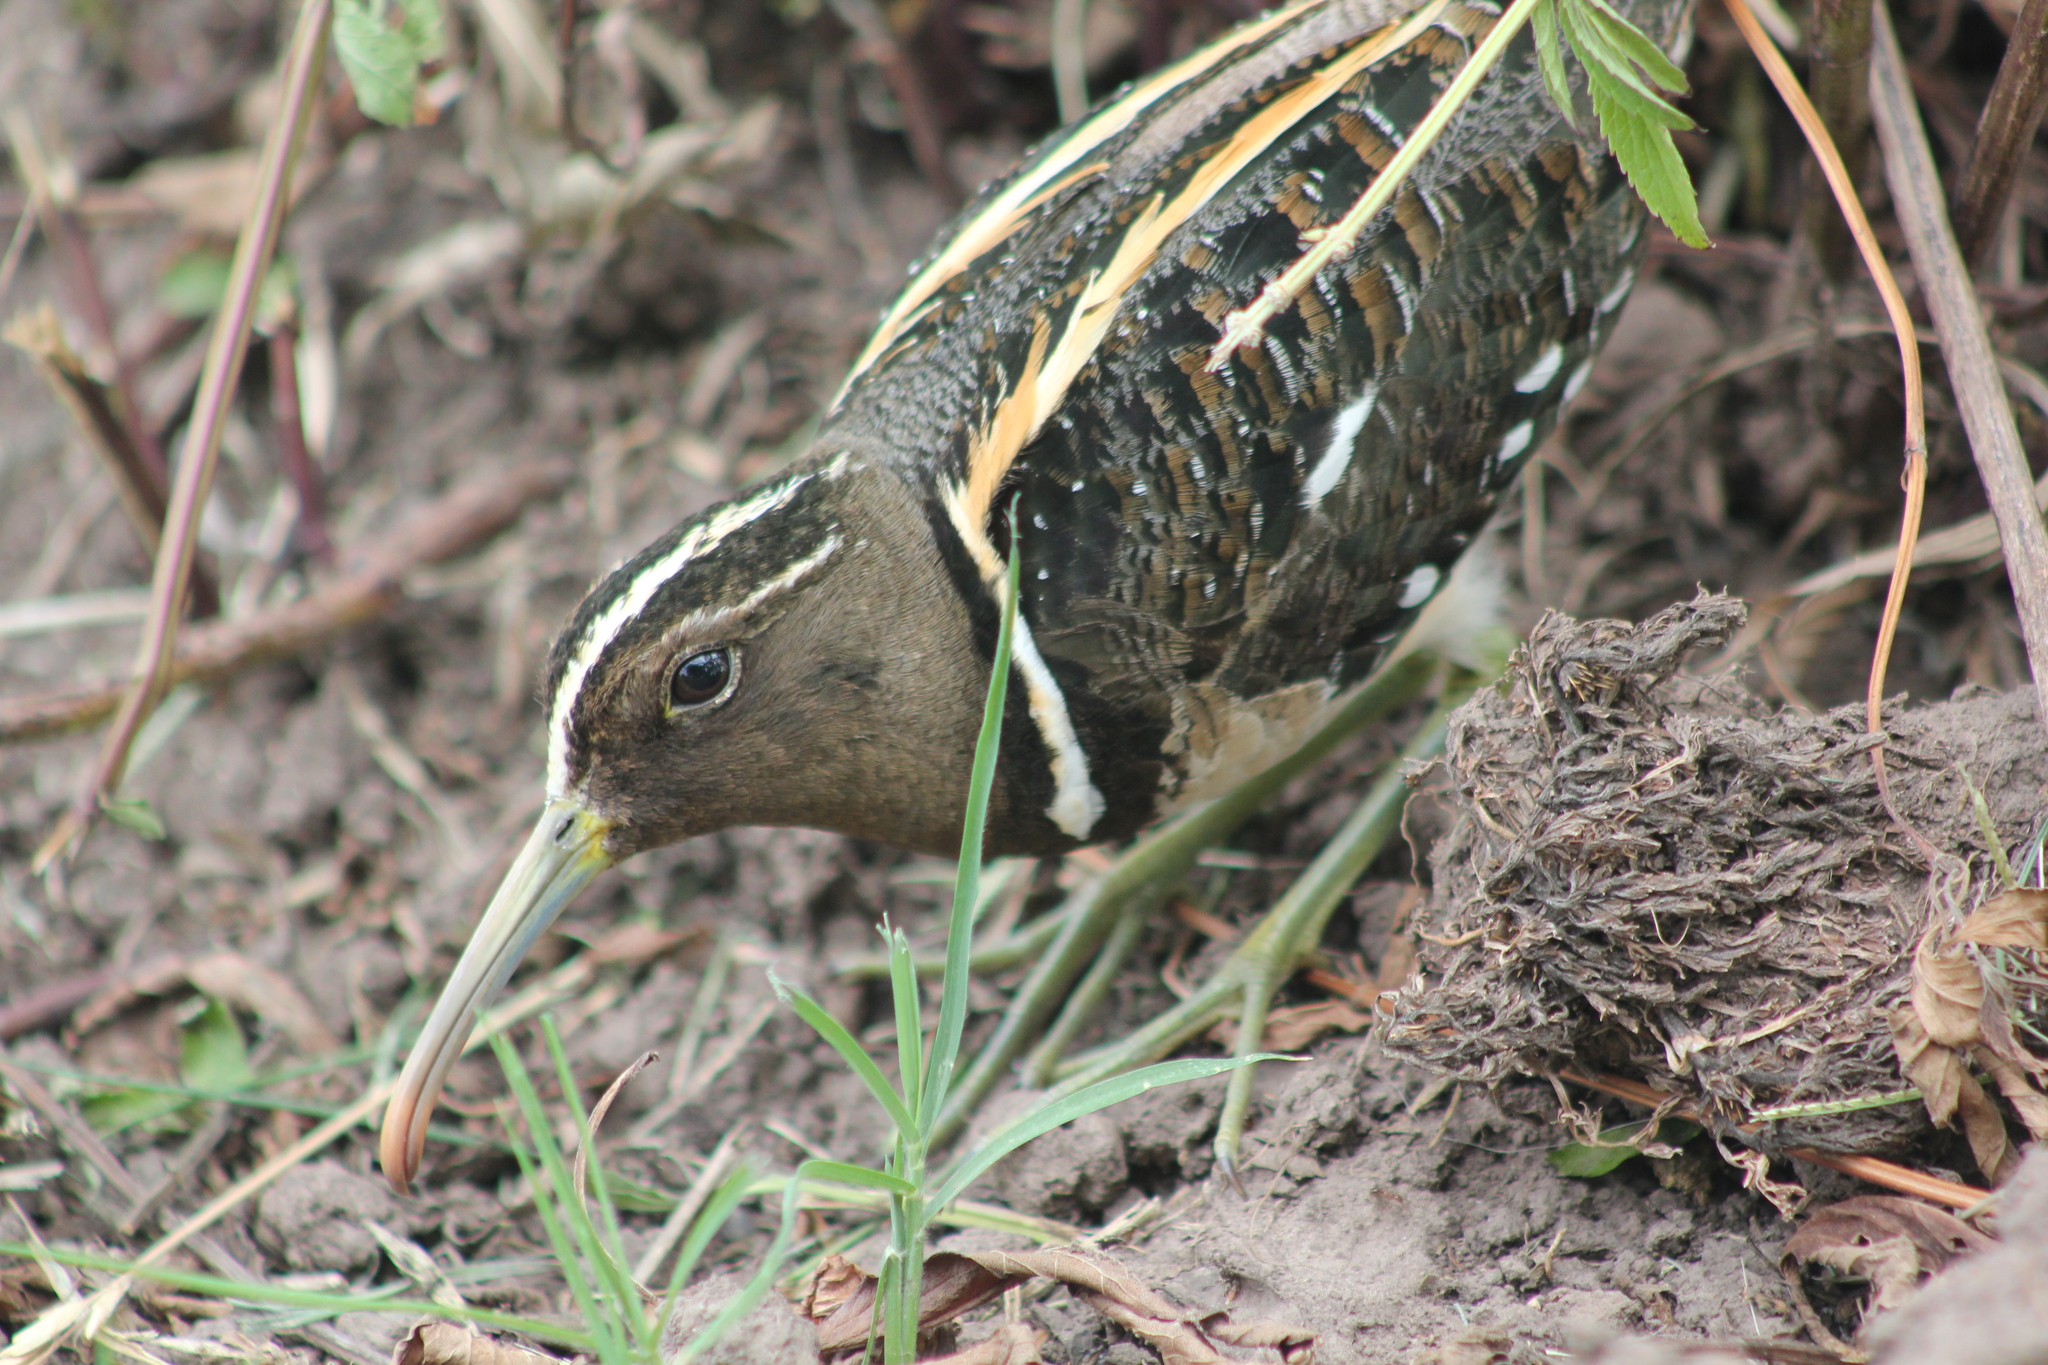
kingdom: Animalia
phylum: Chordata
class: Aves
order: Charadriiformes
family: Rostratulidae
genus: Nycticryphes
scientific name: Nycticryphes semicollaris
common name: South american painted-snipe
